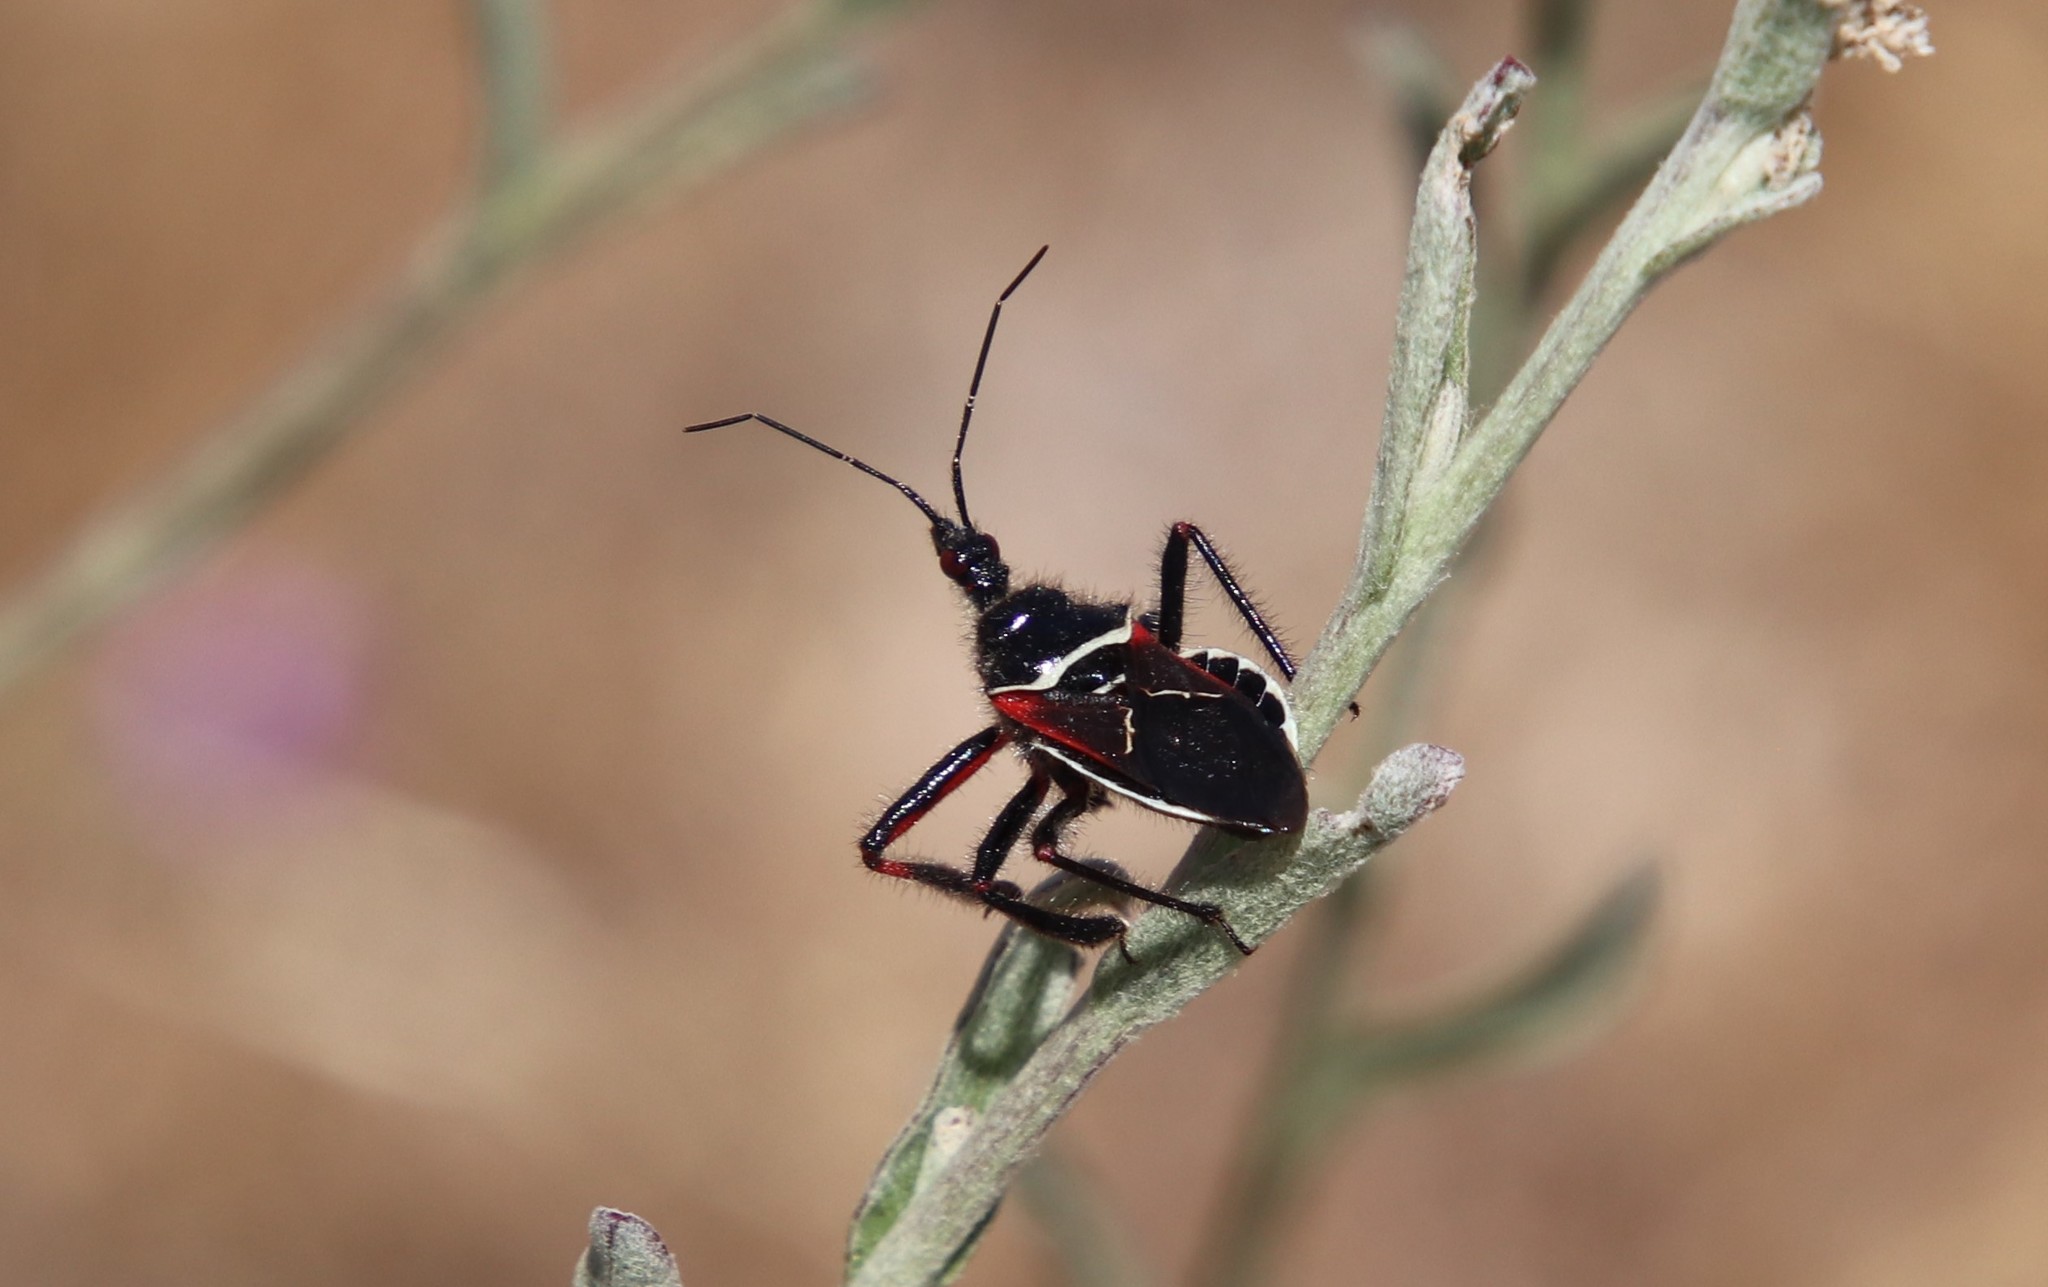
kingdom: Animalia
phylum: Arthropoda
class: Insecta
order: Hemiptera
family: Reduviidae
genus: Apiomerus
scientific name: Apiomerus californicus
